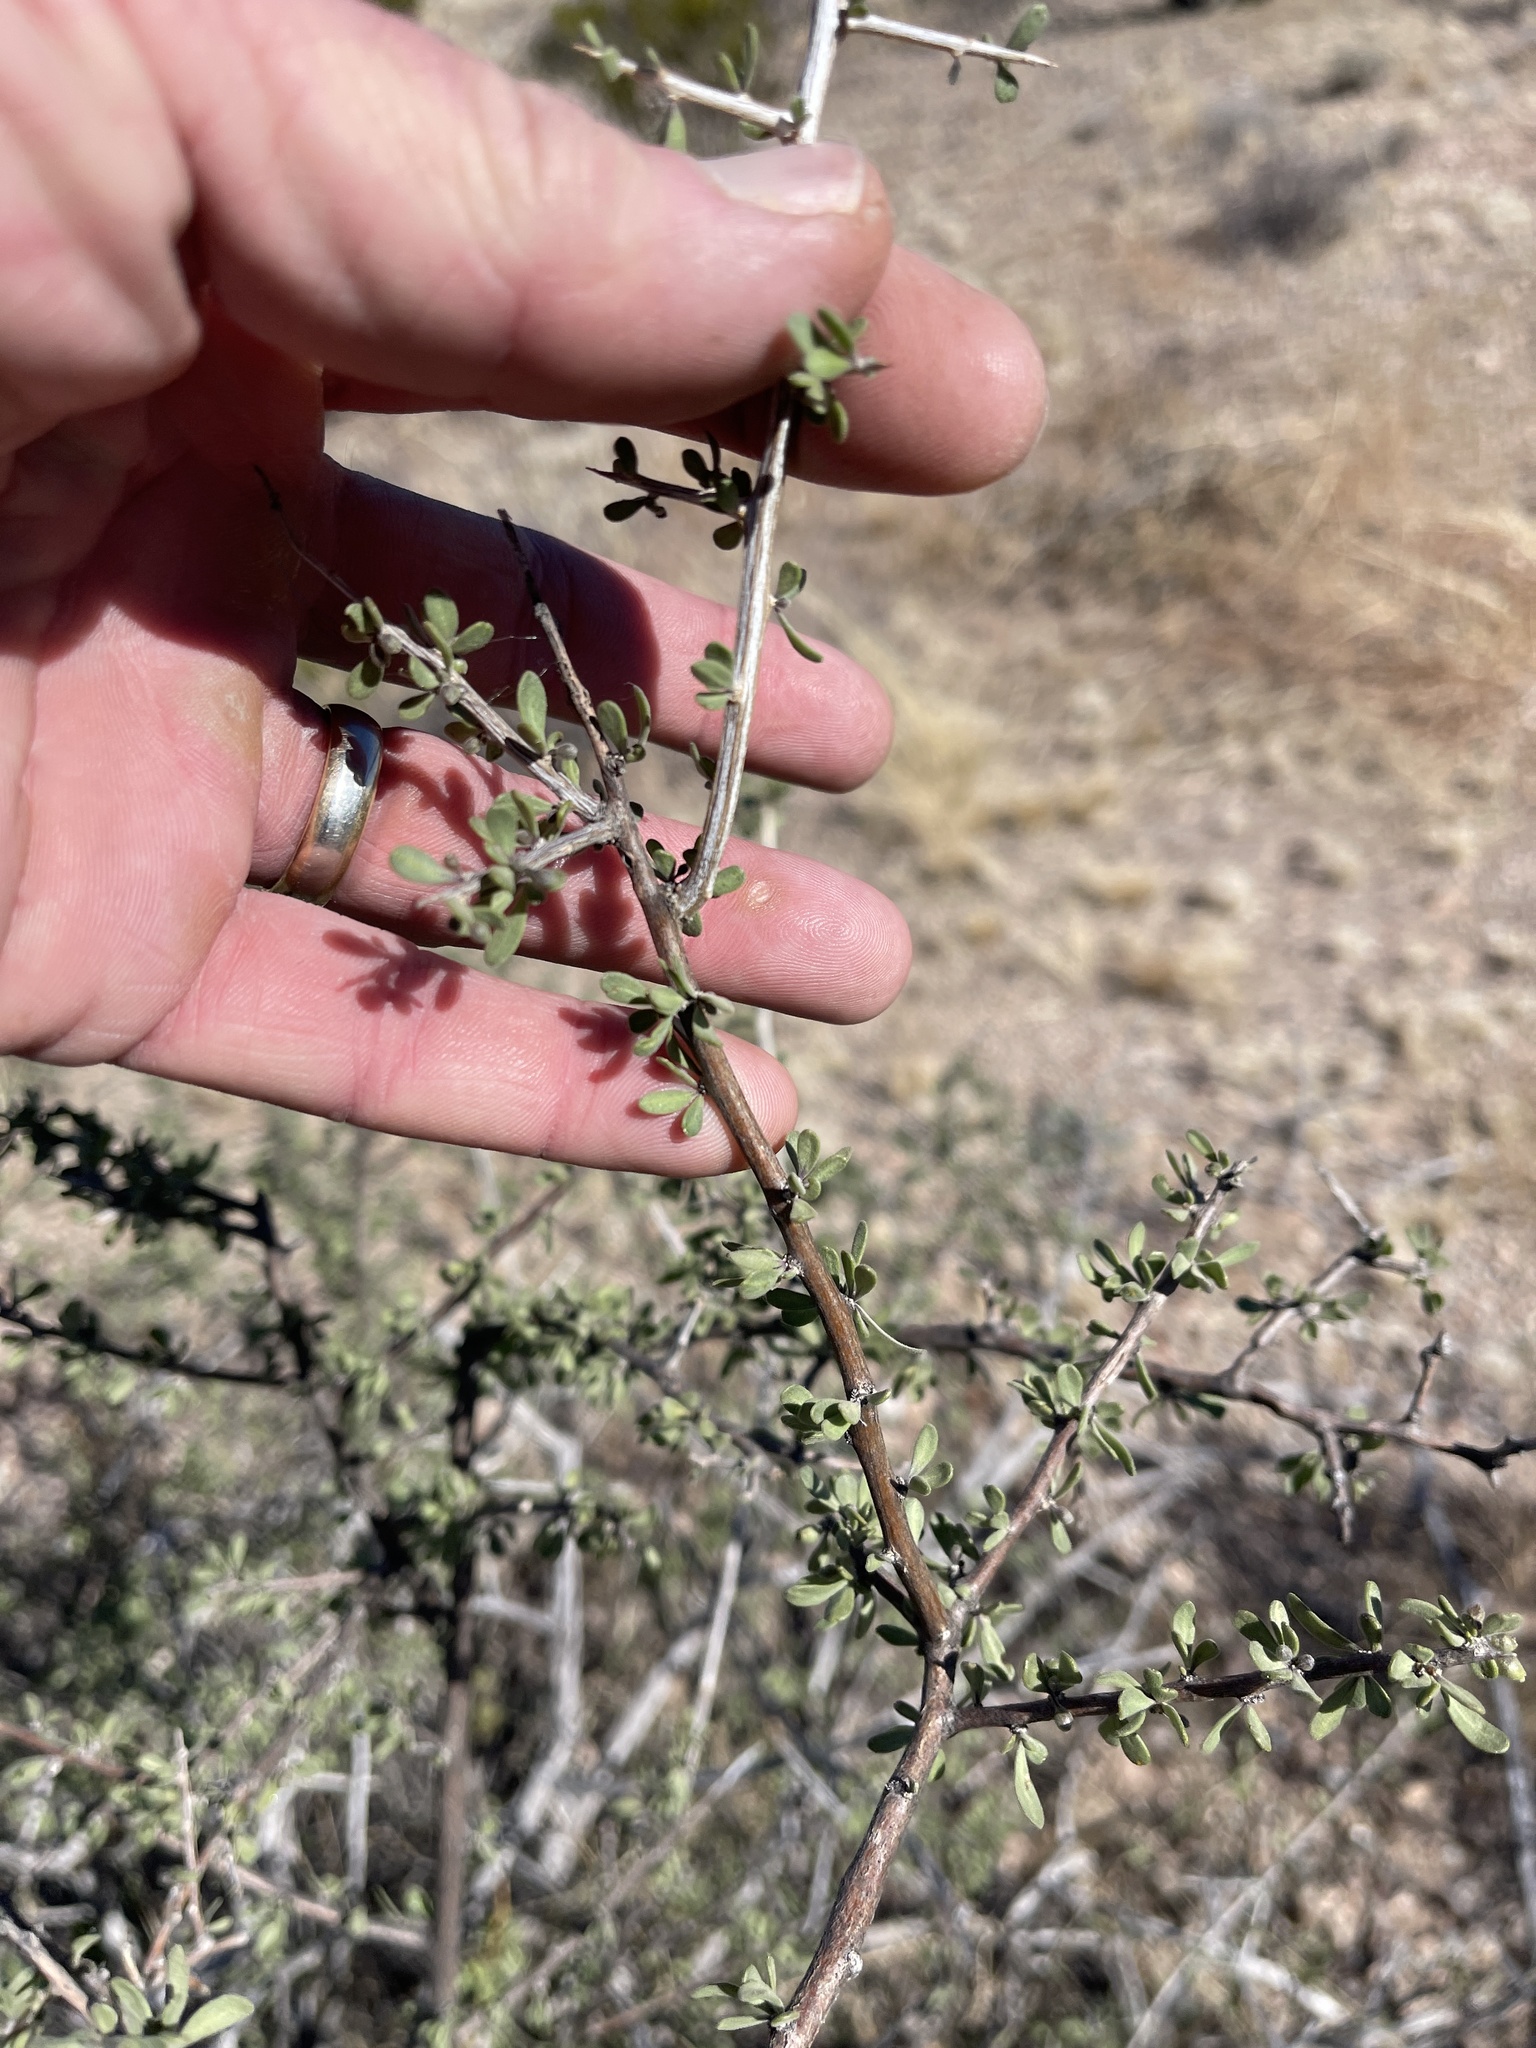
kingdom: Plantae
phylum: Tracheophyta
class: Magnoliopsida
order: Solanales
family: Solanaceae
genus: Lycium
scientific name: Lycium berlandieri
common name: Berlandier wolfberry
